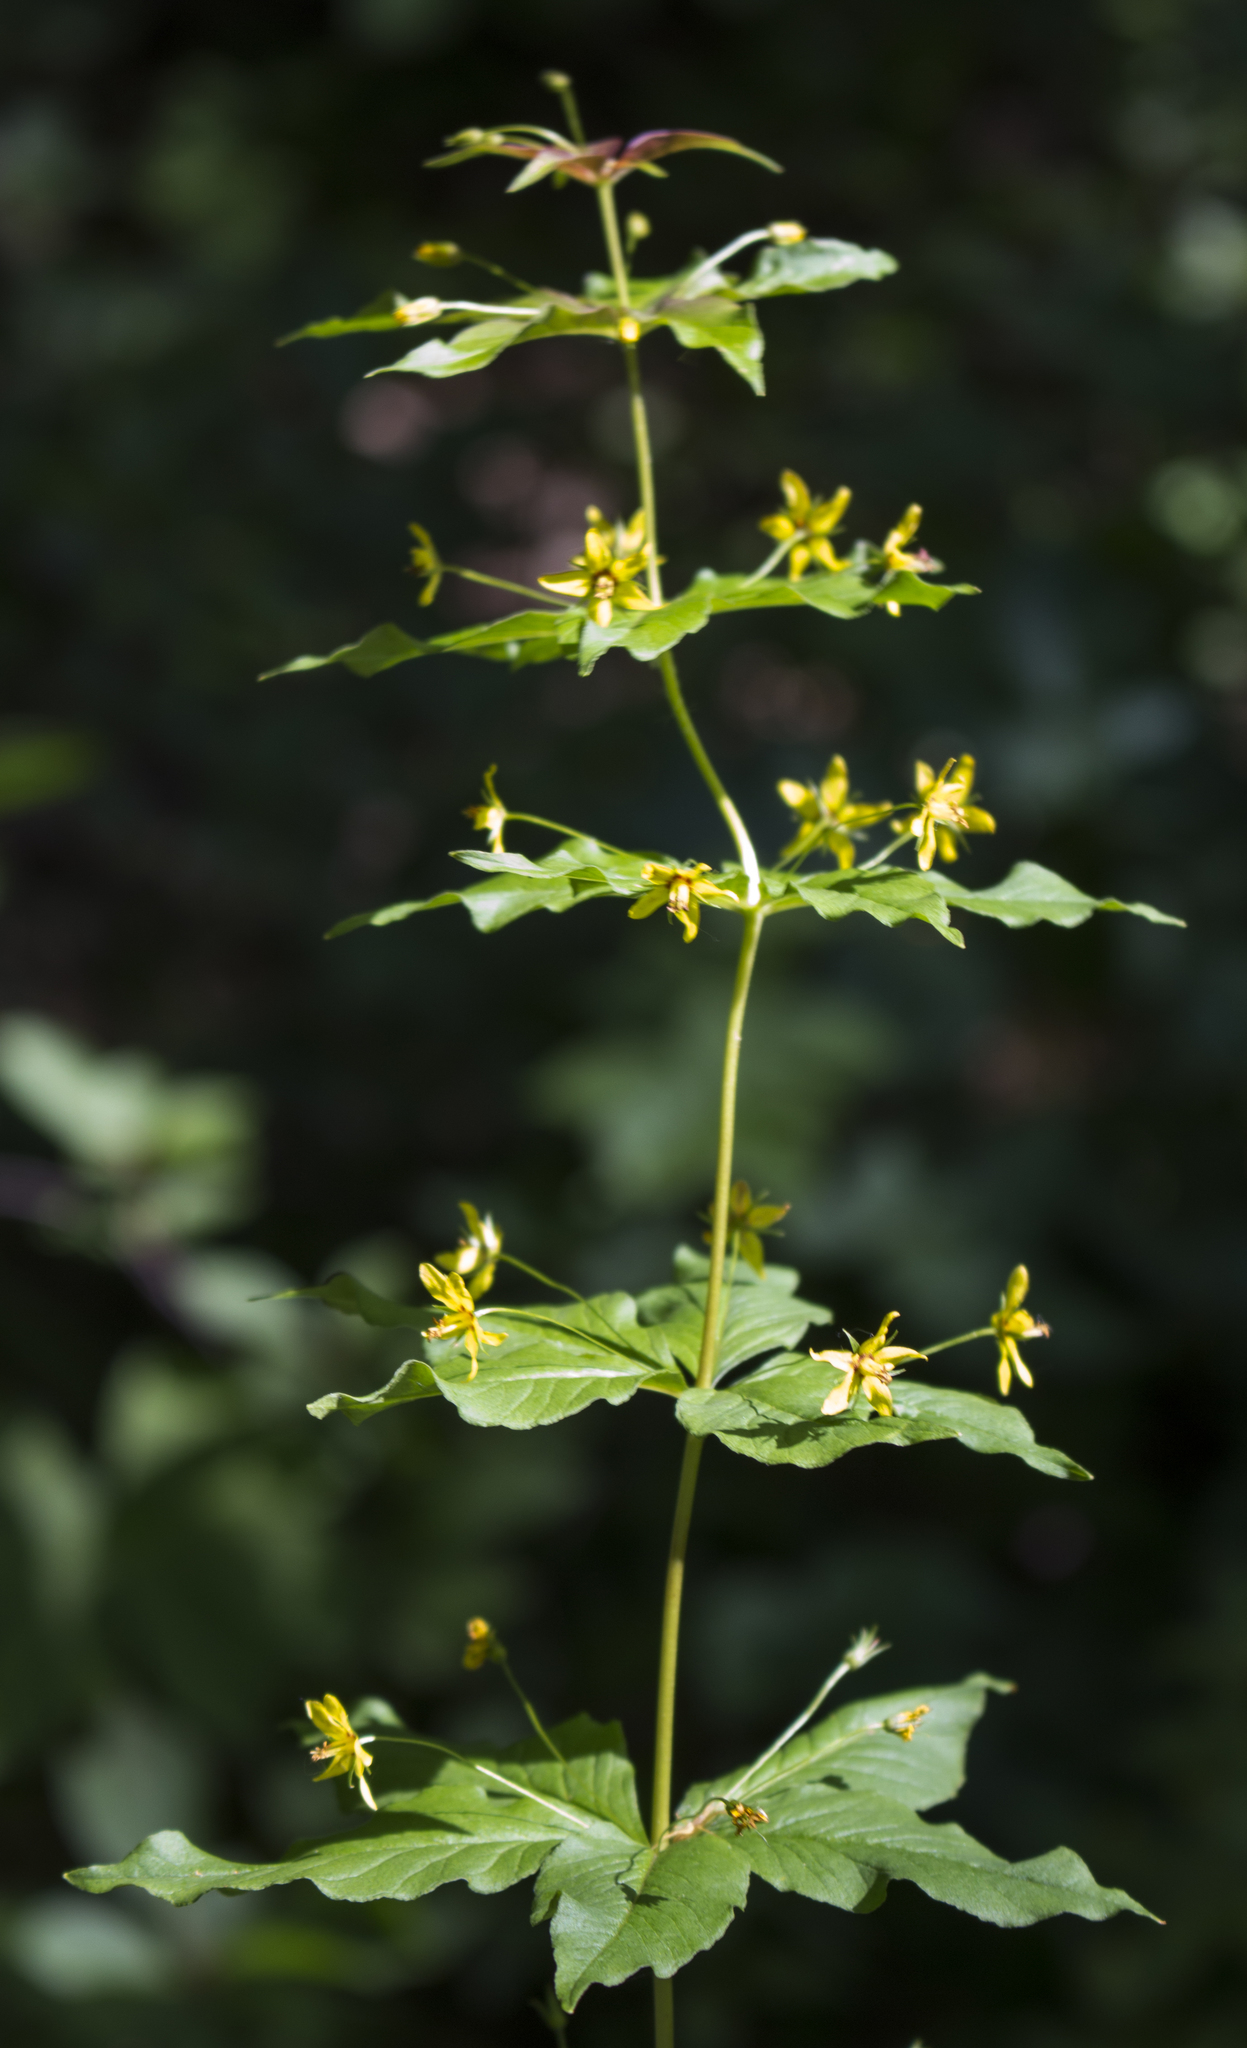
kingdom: Plantae
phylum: Tracheophyta
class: Magnoliopsida
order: Ericales
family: Primulaceae
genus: Lysimachia
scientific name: Lysimachia quadrifolia
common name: Whorled loosestrife
